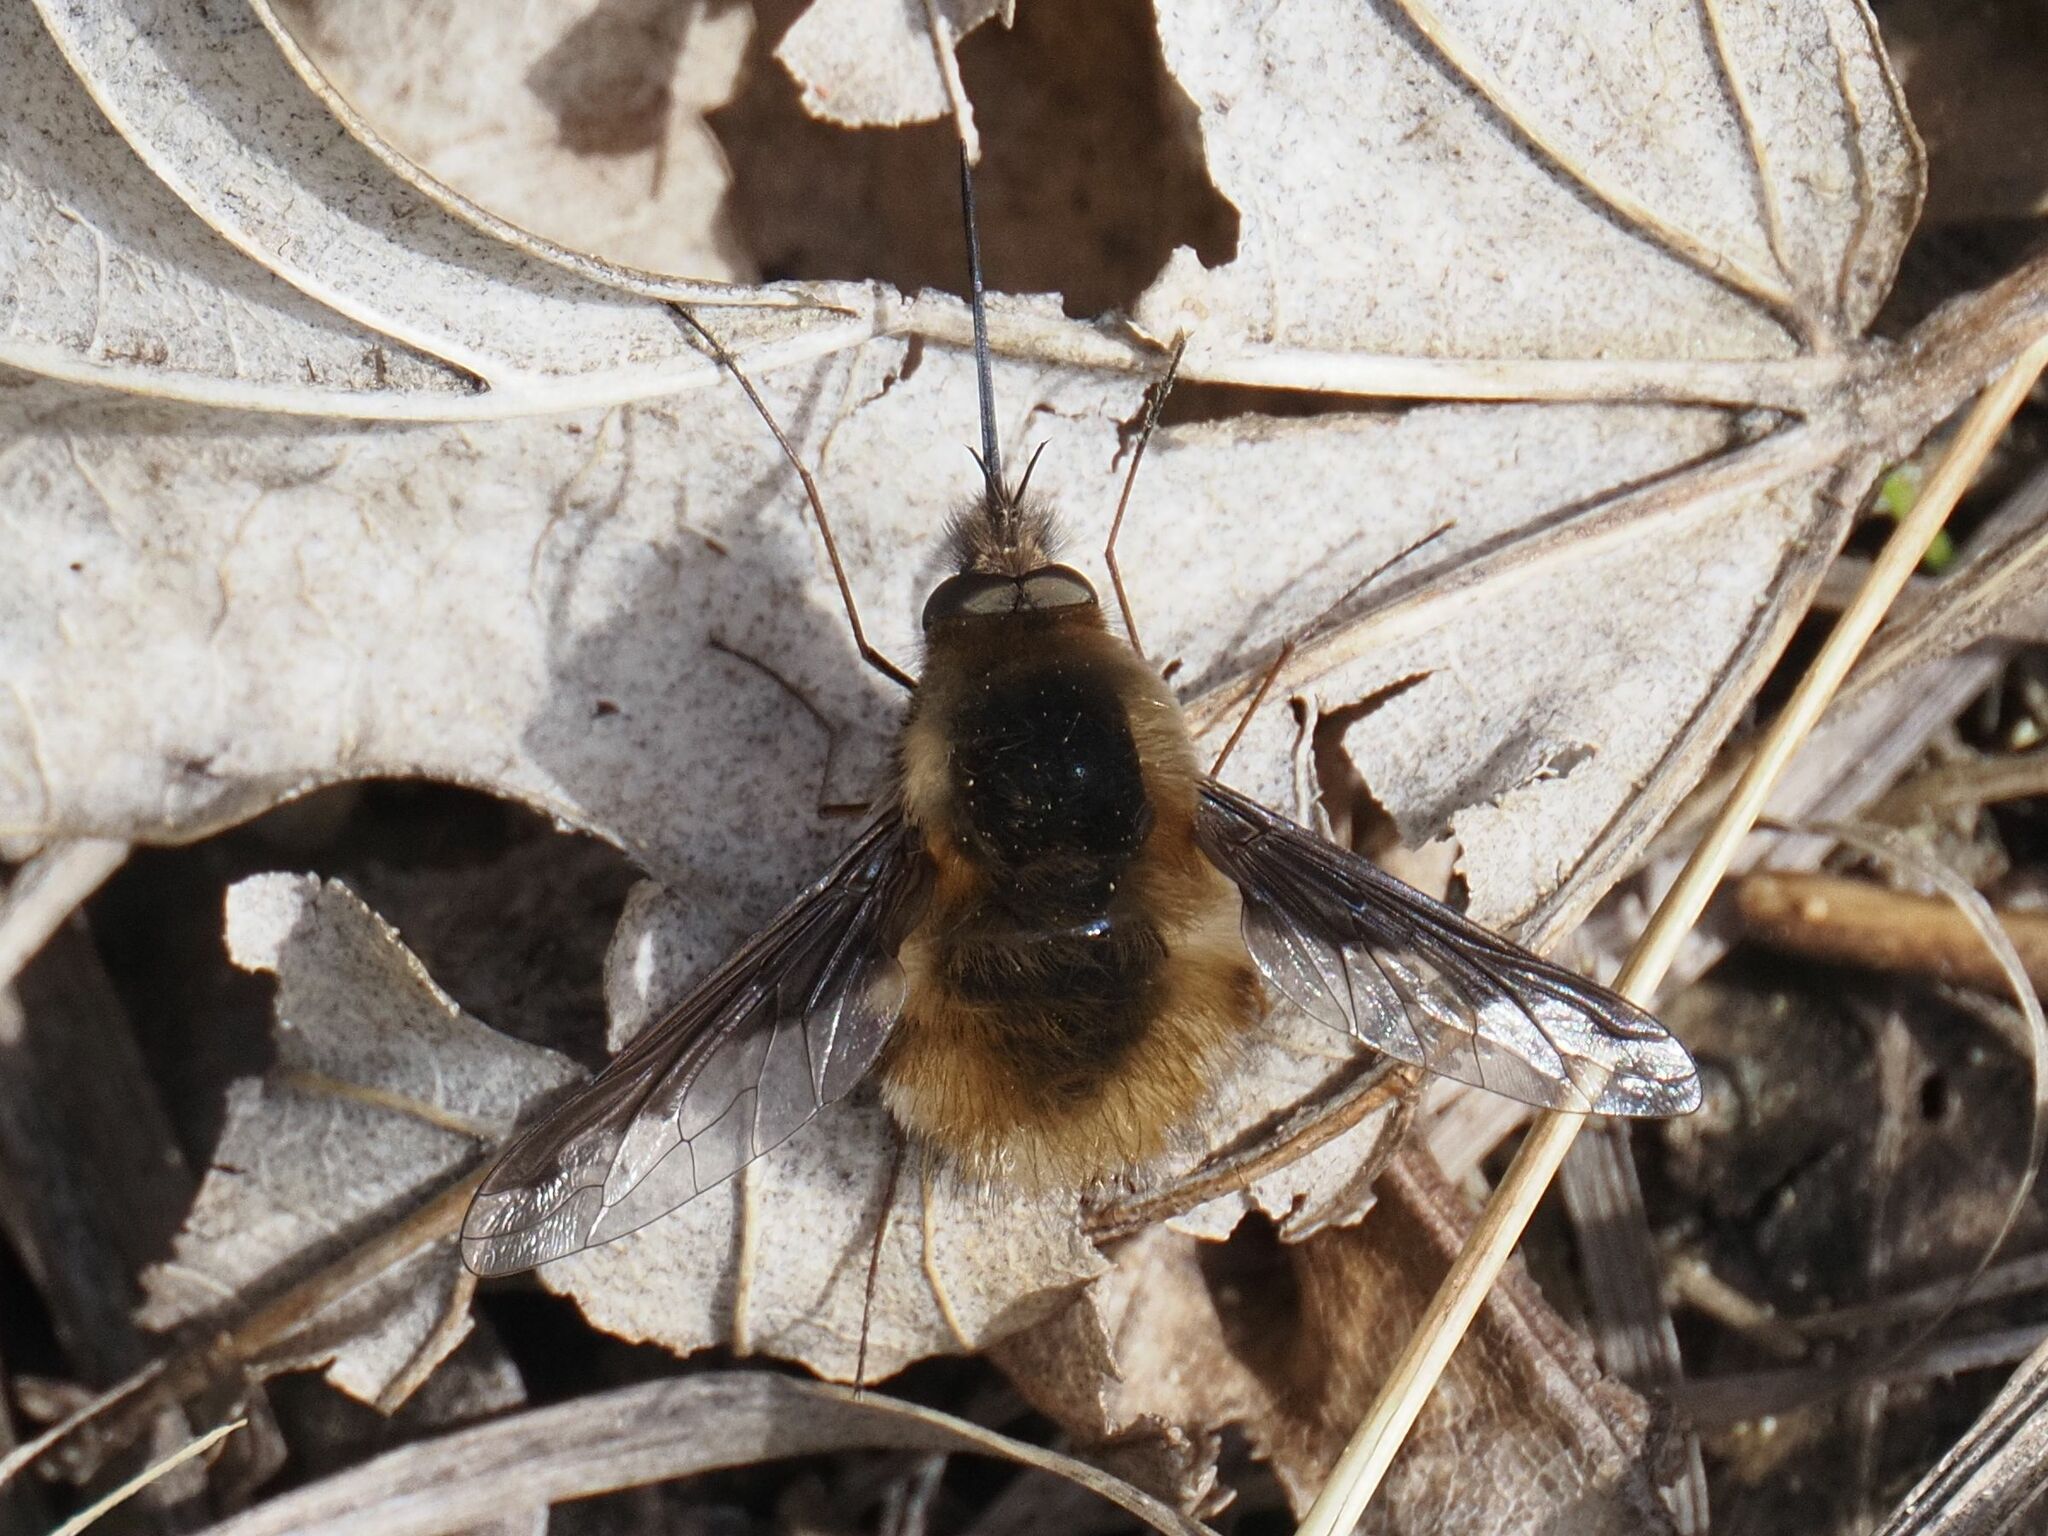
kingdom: Animalia
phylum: Arthropoda
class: Insecta
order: Diptera
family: Bombyliidae
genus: Bombylius
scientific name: Bombylius major
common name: Bee fly
